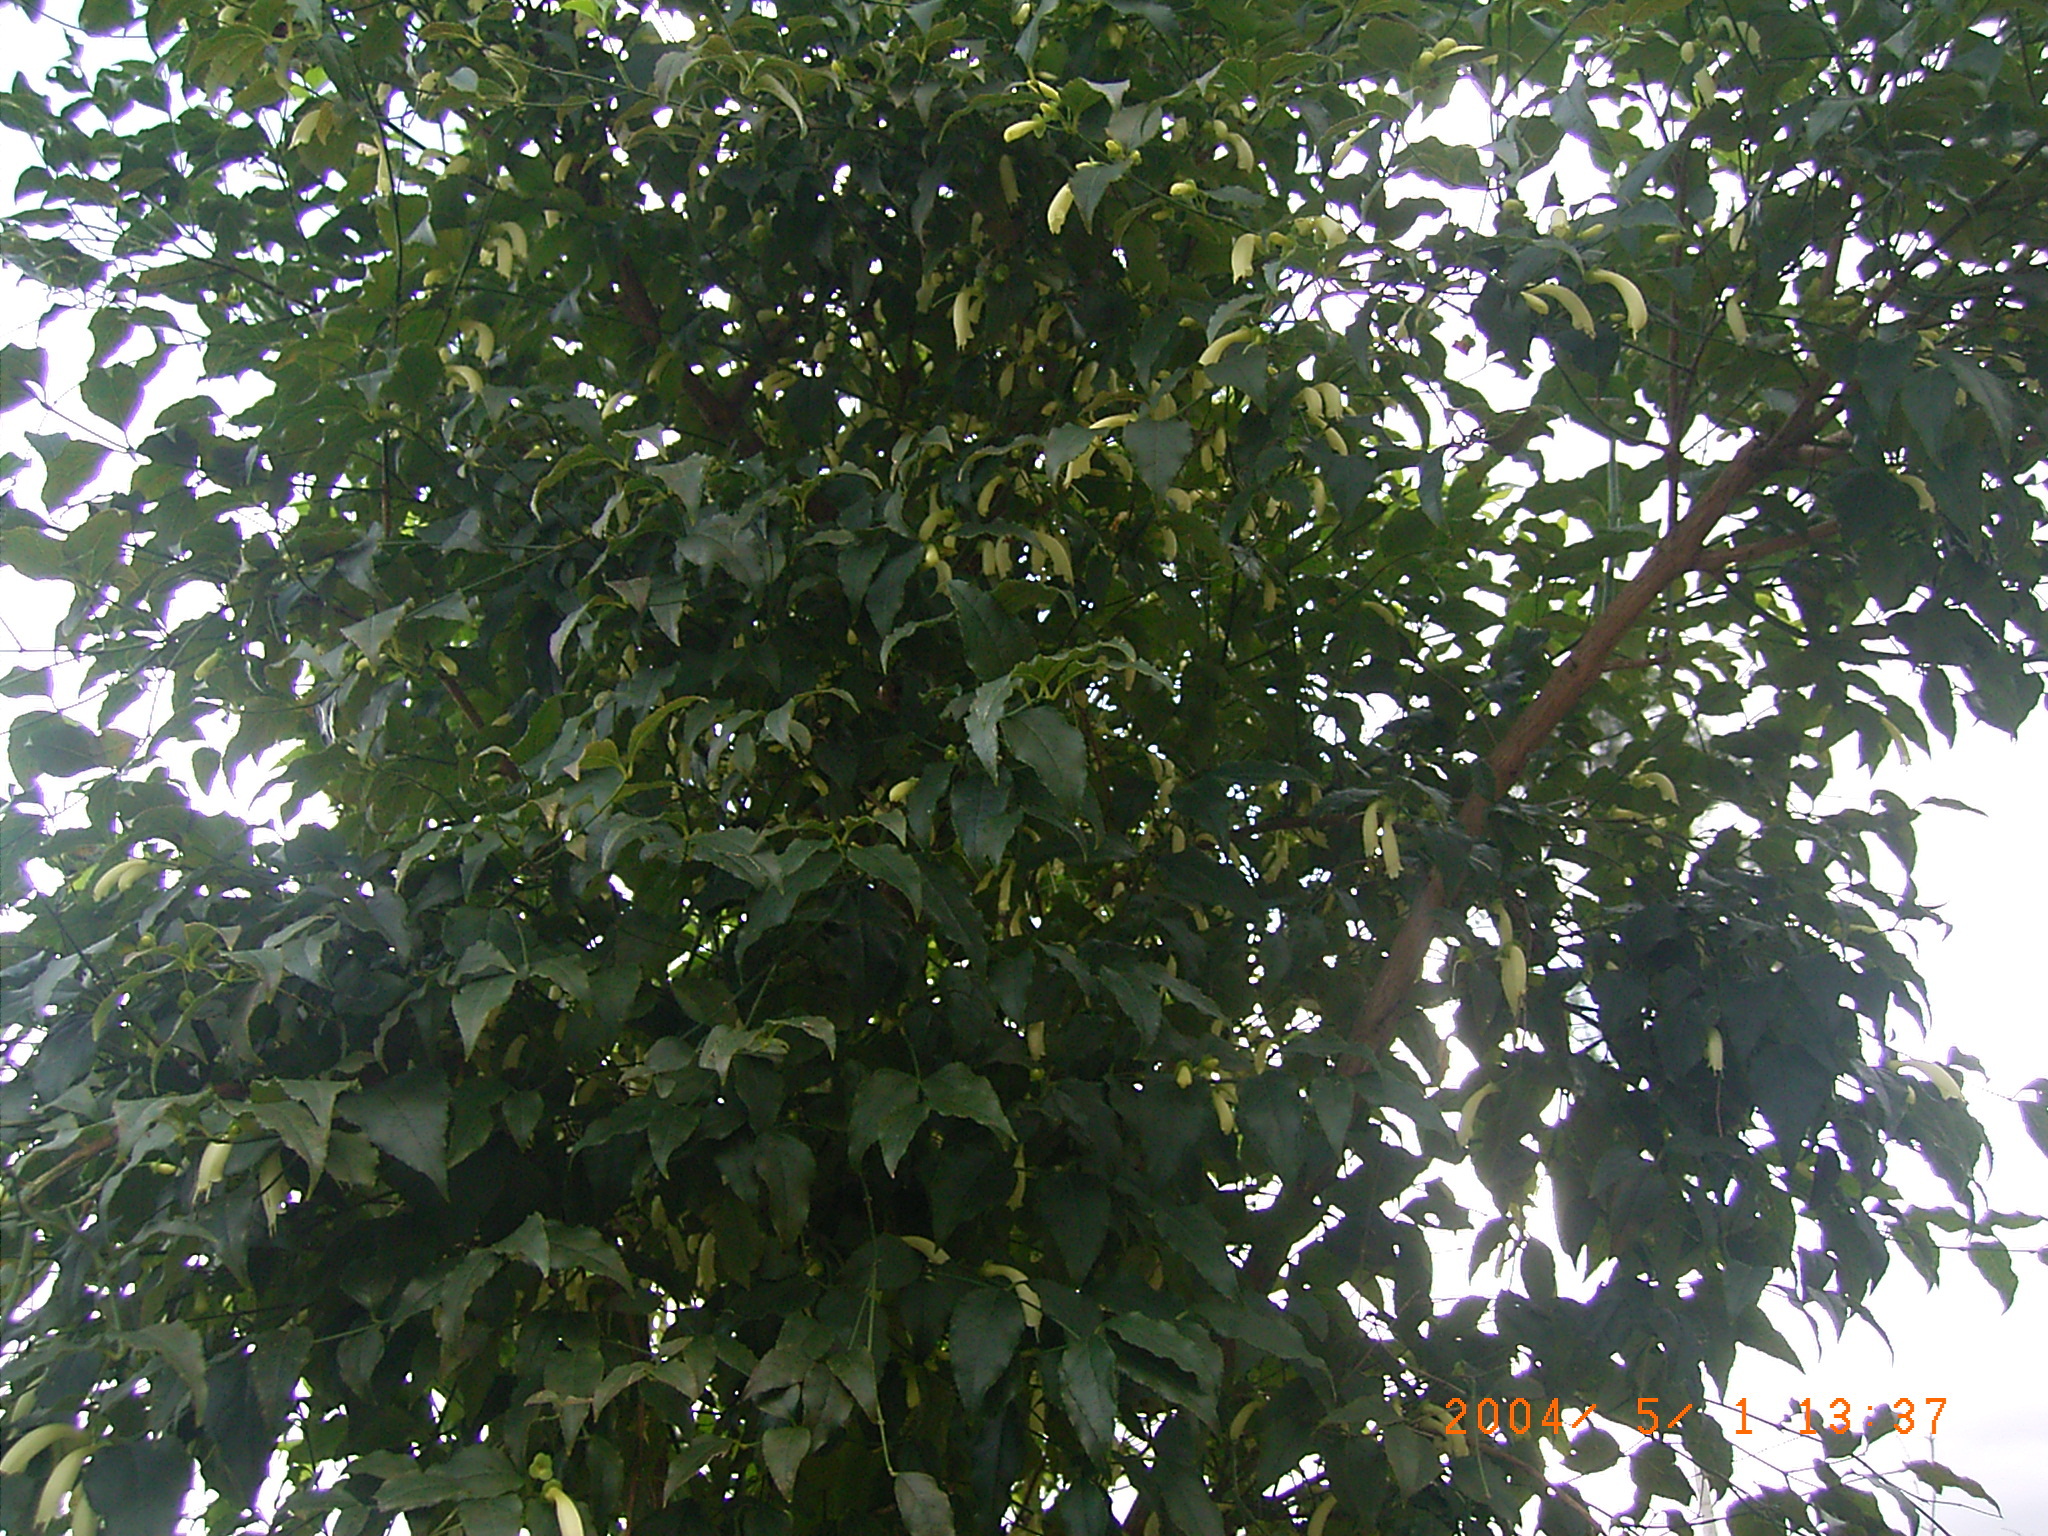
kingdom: Plantae
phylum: Tracheophyta
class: Magnoliopsida
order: Lamiales
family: Stilbaceae
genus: Halleria
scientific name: Halleria lucida
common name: Tree fuschia
